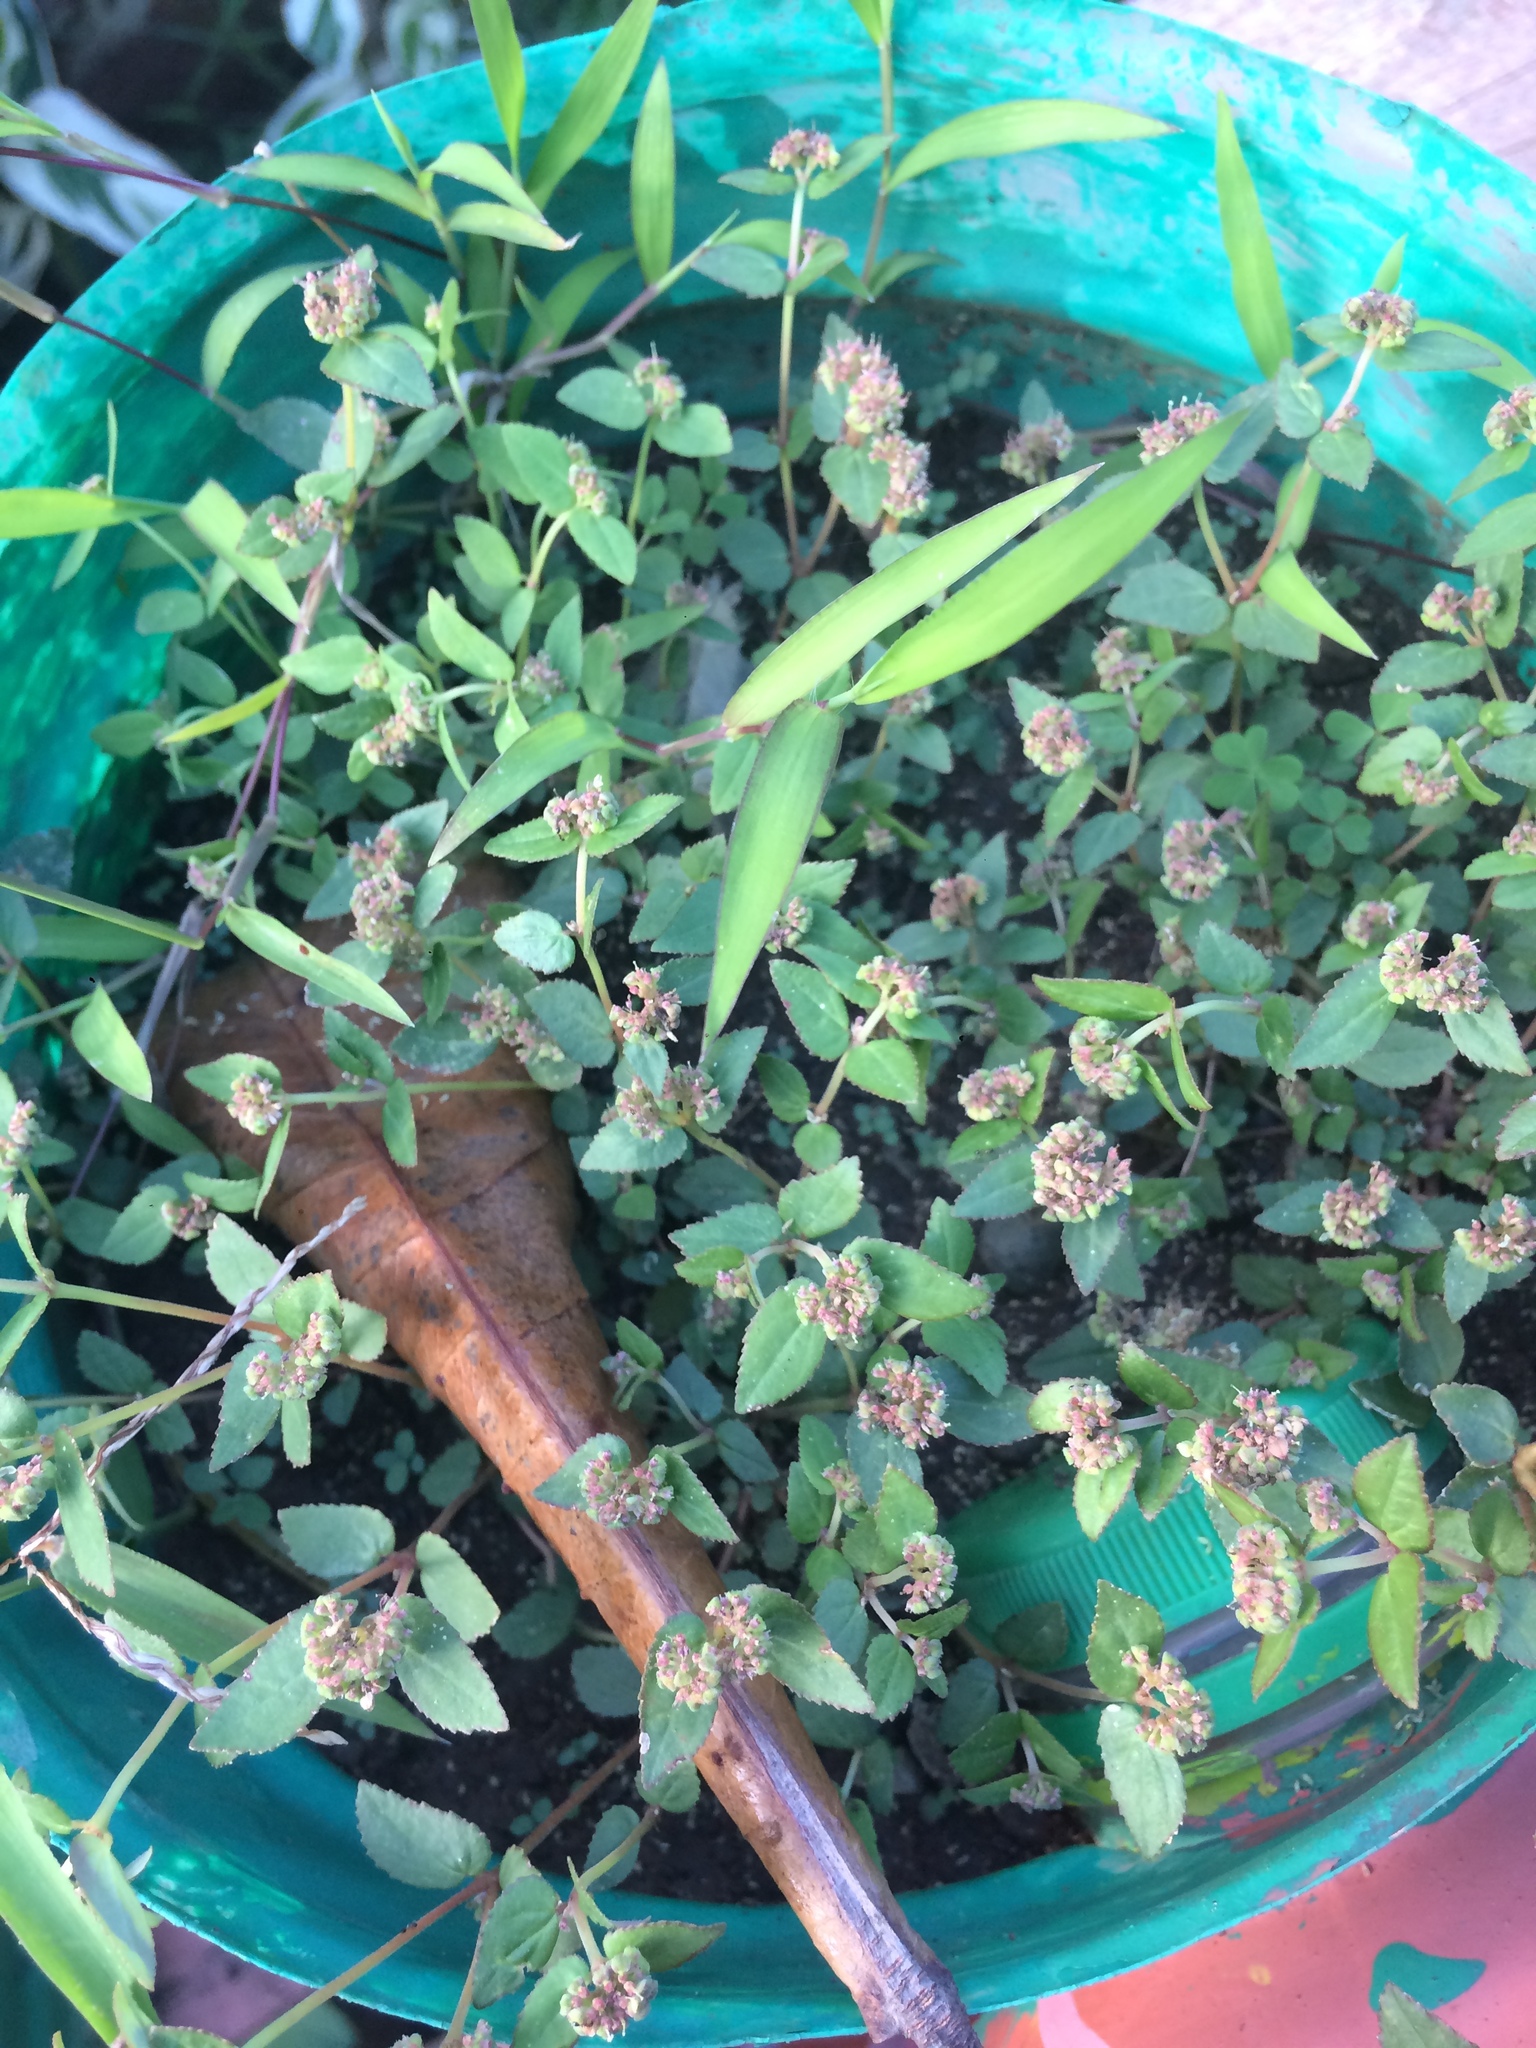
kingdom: Plantae
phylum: Tracheophyta
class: Magnoliopsida
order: Malpighiales
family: Euphorbiaceae
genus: Euphorbia
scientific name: Euphorbia ophthalmica
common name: Florida hammock sandmat
